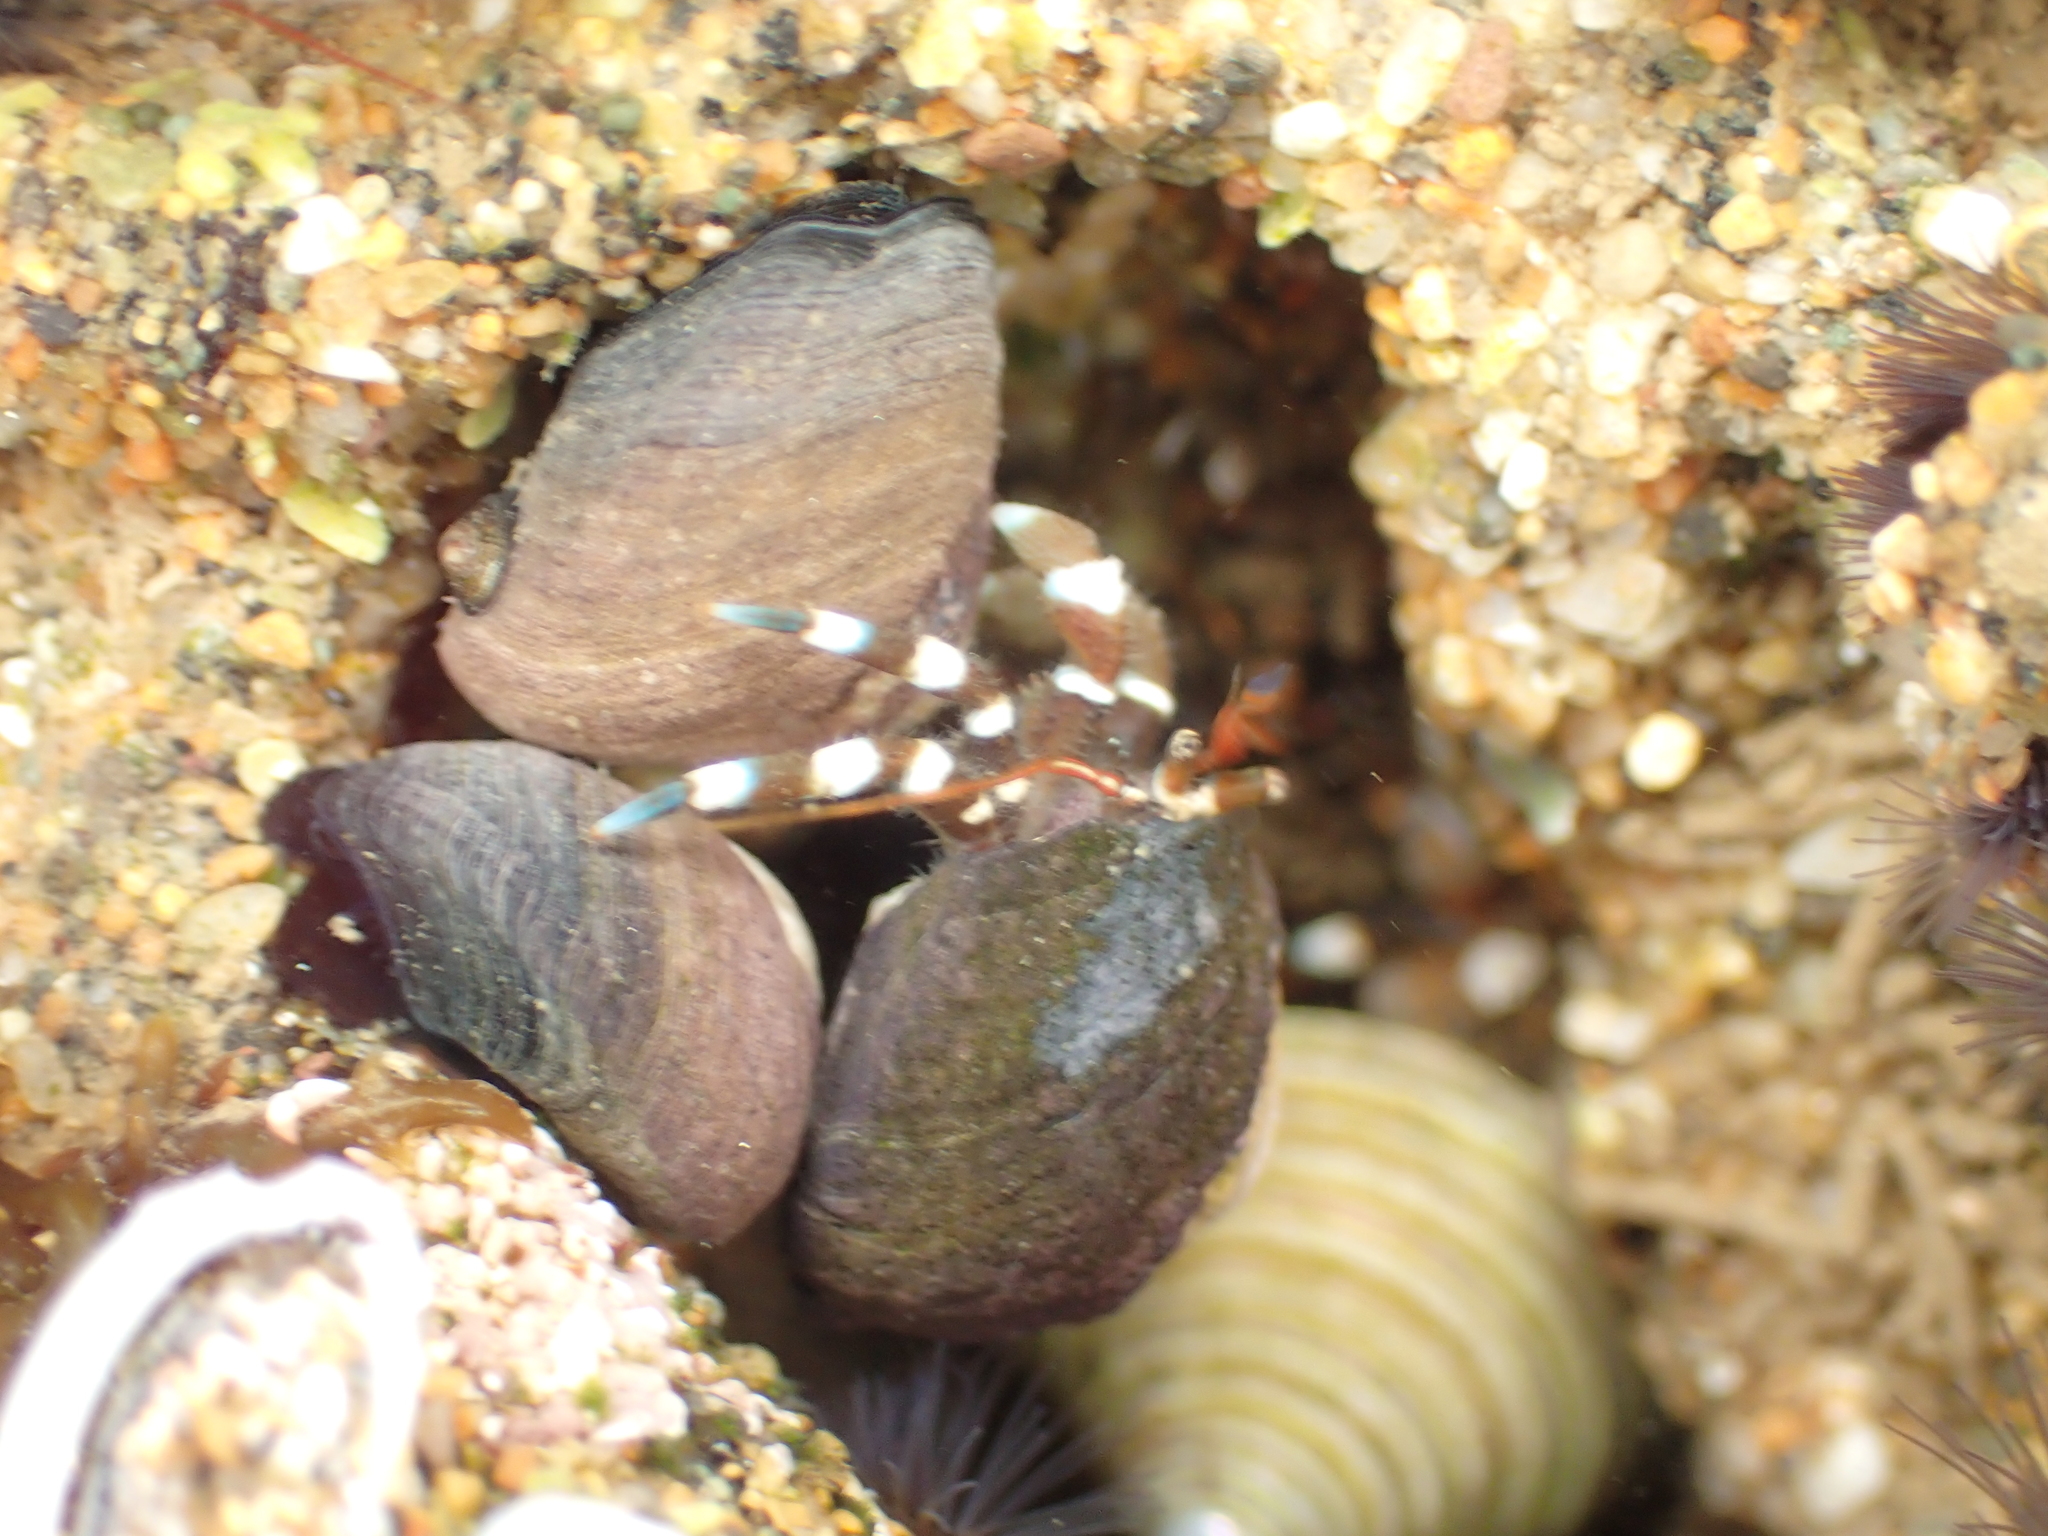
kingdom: Animalia
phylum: Arthropoda
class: Malacostraca
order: Decapoda
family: Paguridae
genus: Pagurus
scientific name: Pagurus samuelis
